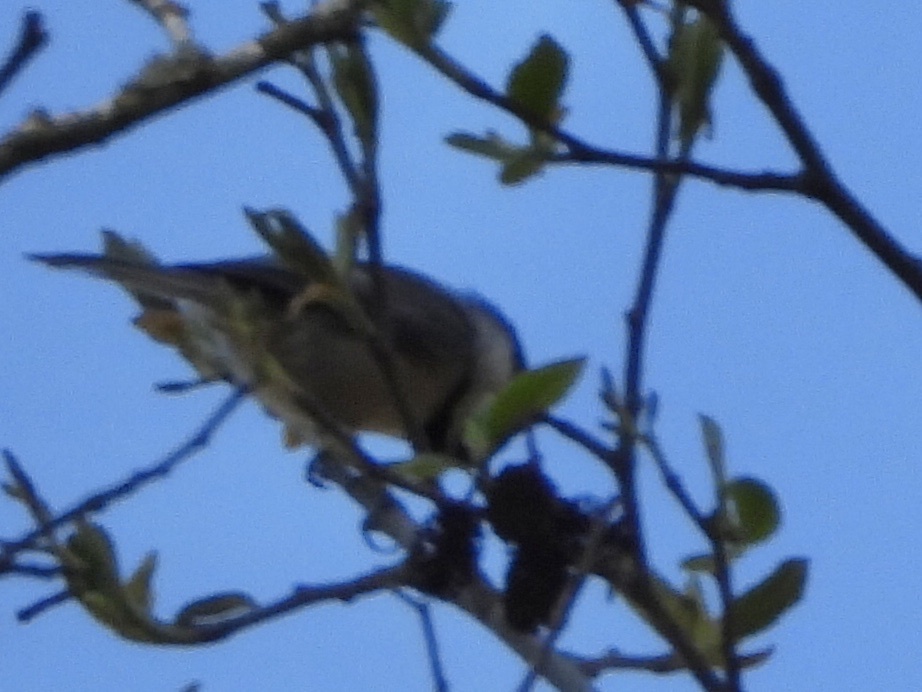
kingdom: Animalia
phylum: Chordata
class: Aves
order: Passeriformes
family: Paridae
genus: Poecile
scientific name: Poecile atricapillus
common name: Black-capped chickadee
